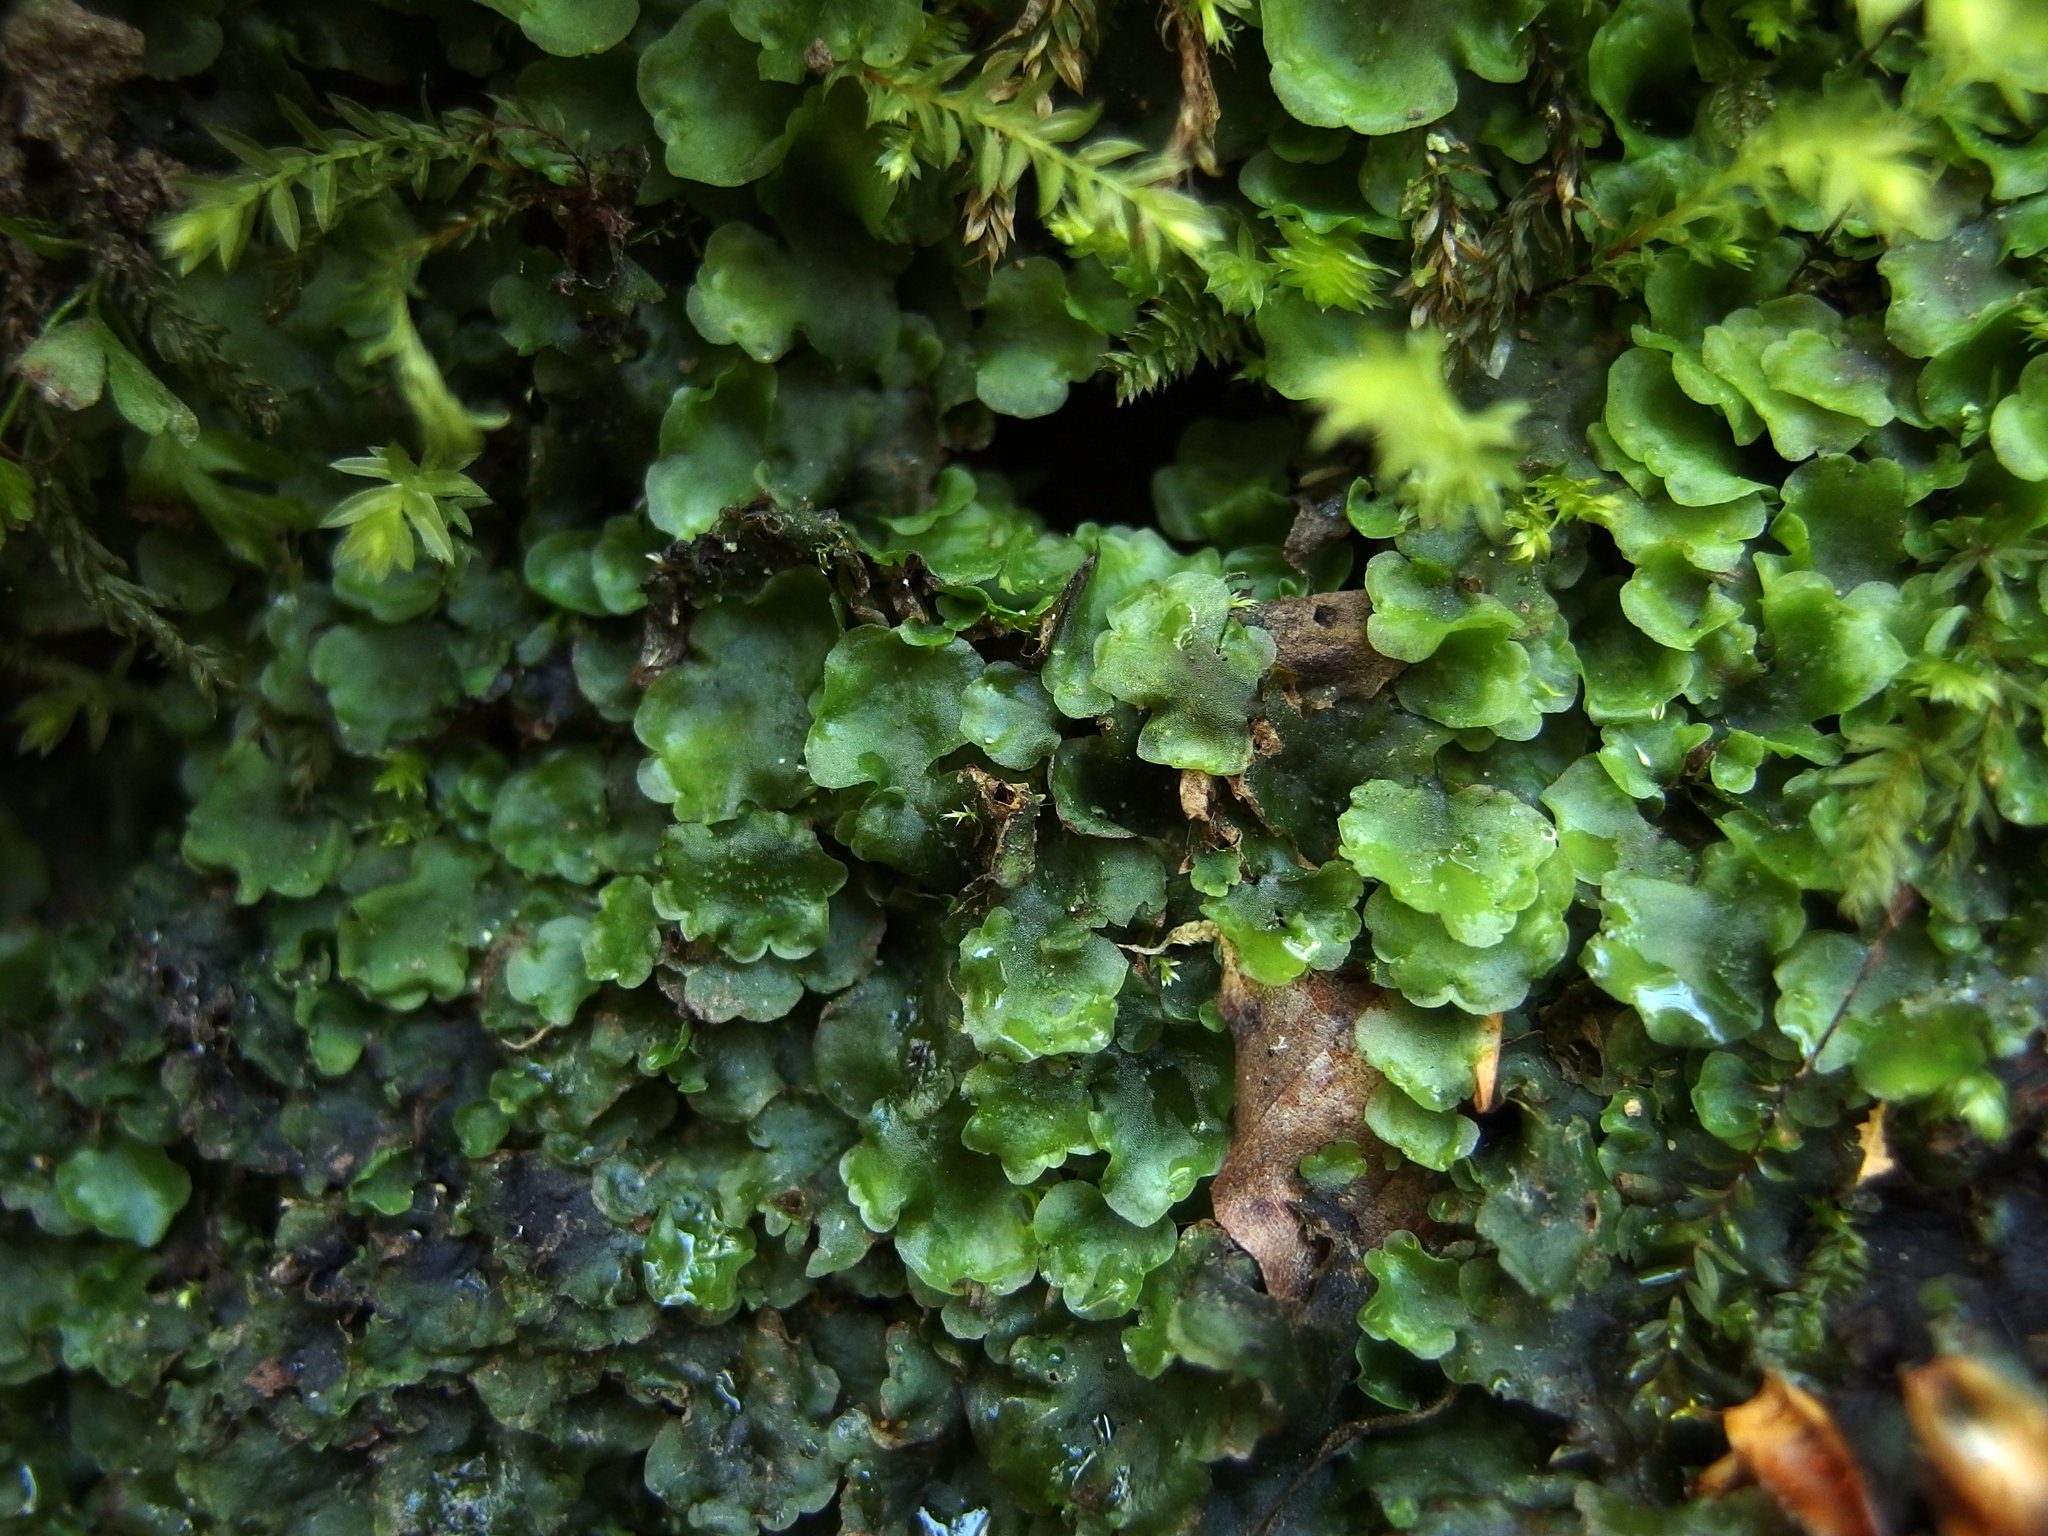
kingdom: Plantae
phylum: Marchantiophyta
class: Jungermanniopsida
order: Pelliales
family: Pelliaceae
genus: Pellia
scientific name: Pellia epiphylla
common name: Common pellia
